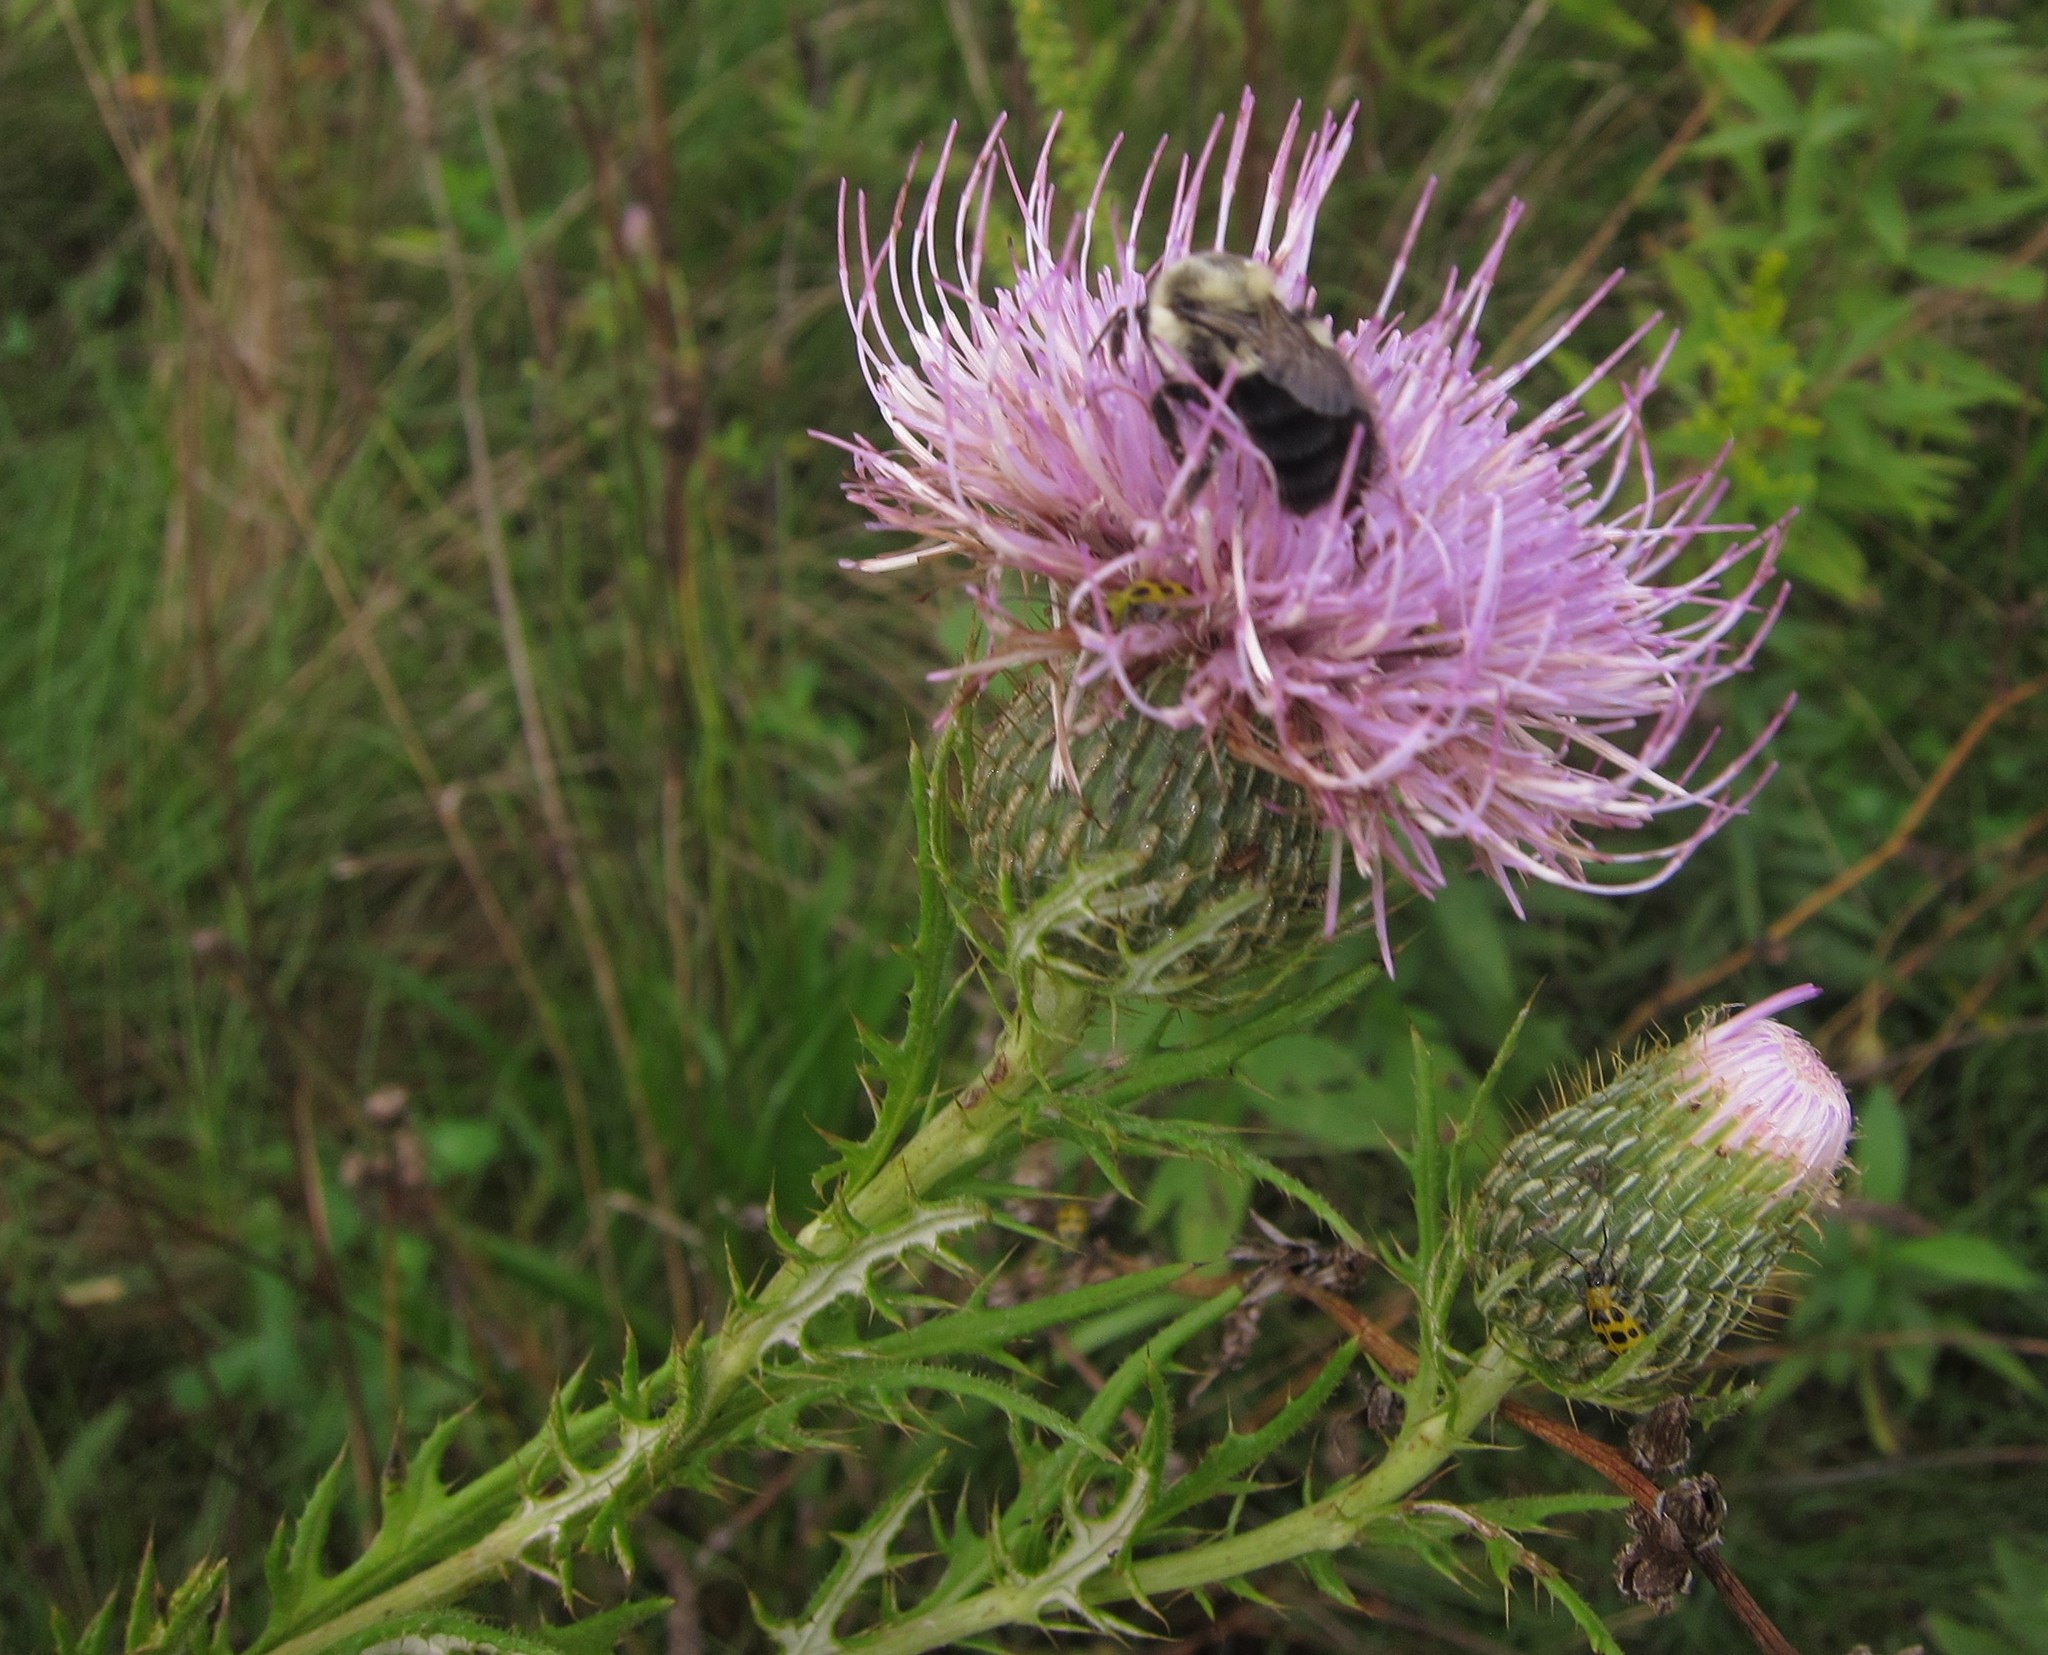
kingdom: Plantae
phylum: Tracheophyta
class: Magnoliopsida
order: Asterales
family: Asteraceae
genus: Cirsium
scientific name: Cirsium discolor
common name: Field thistle
